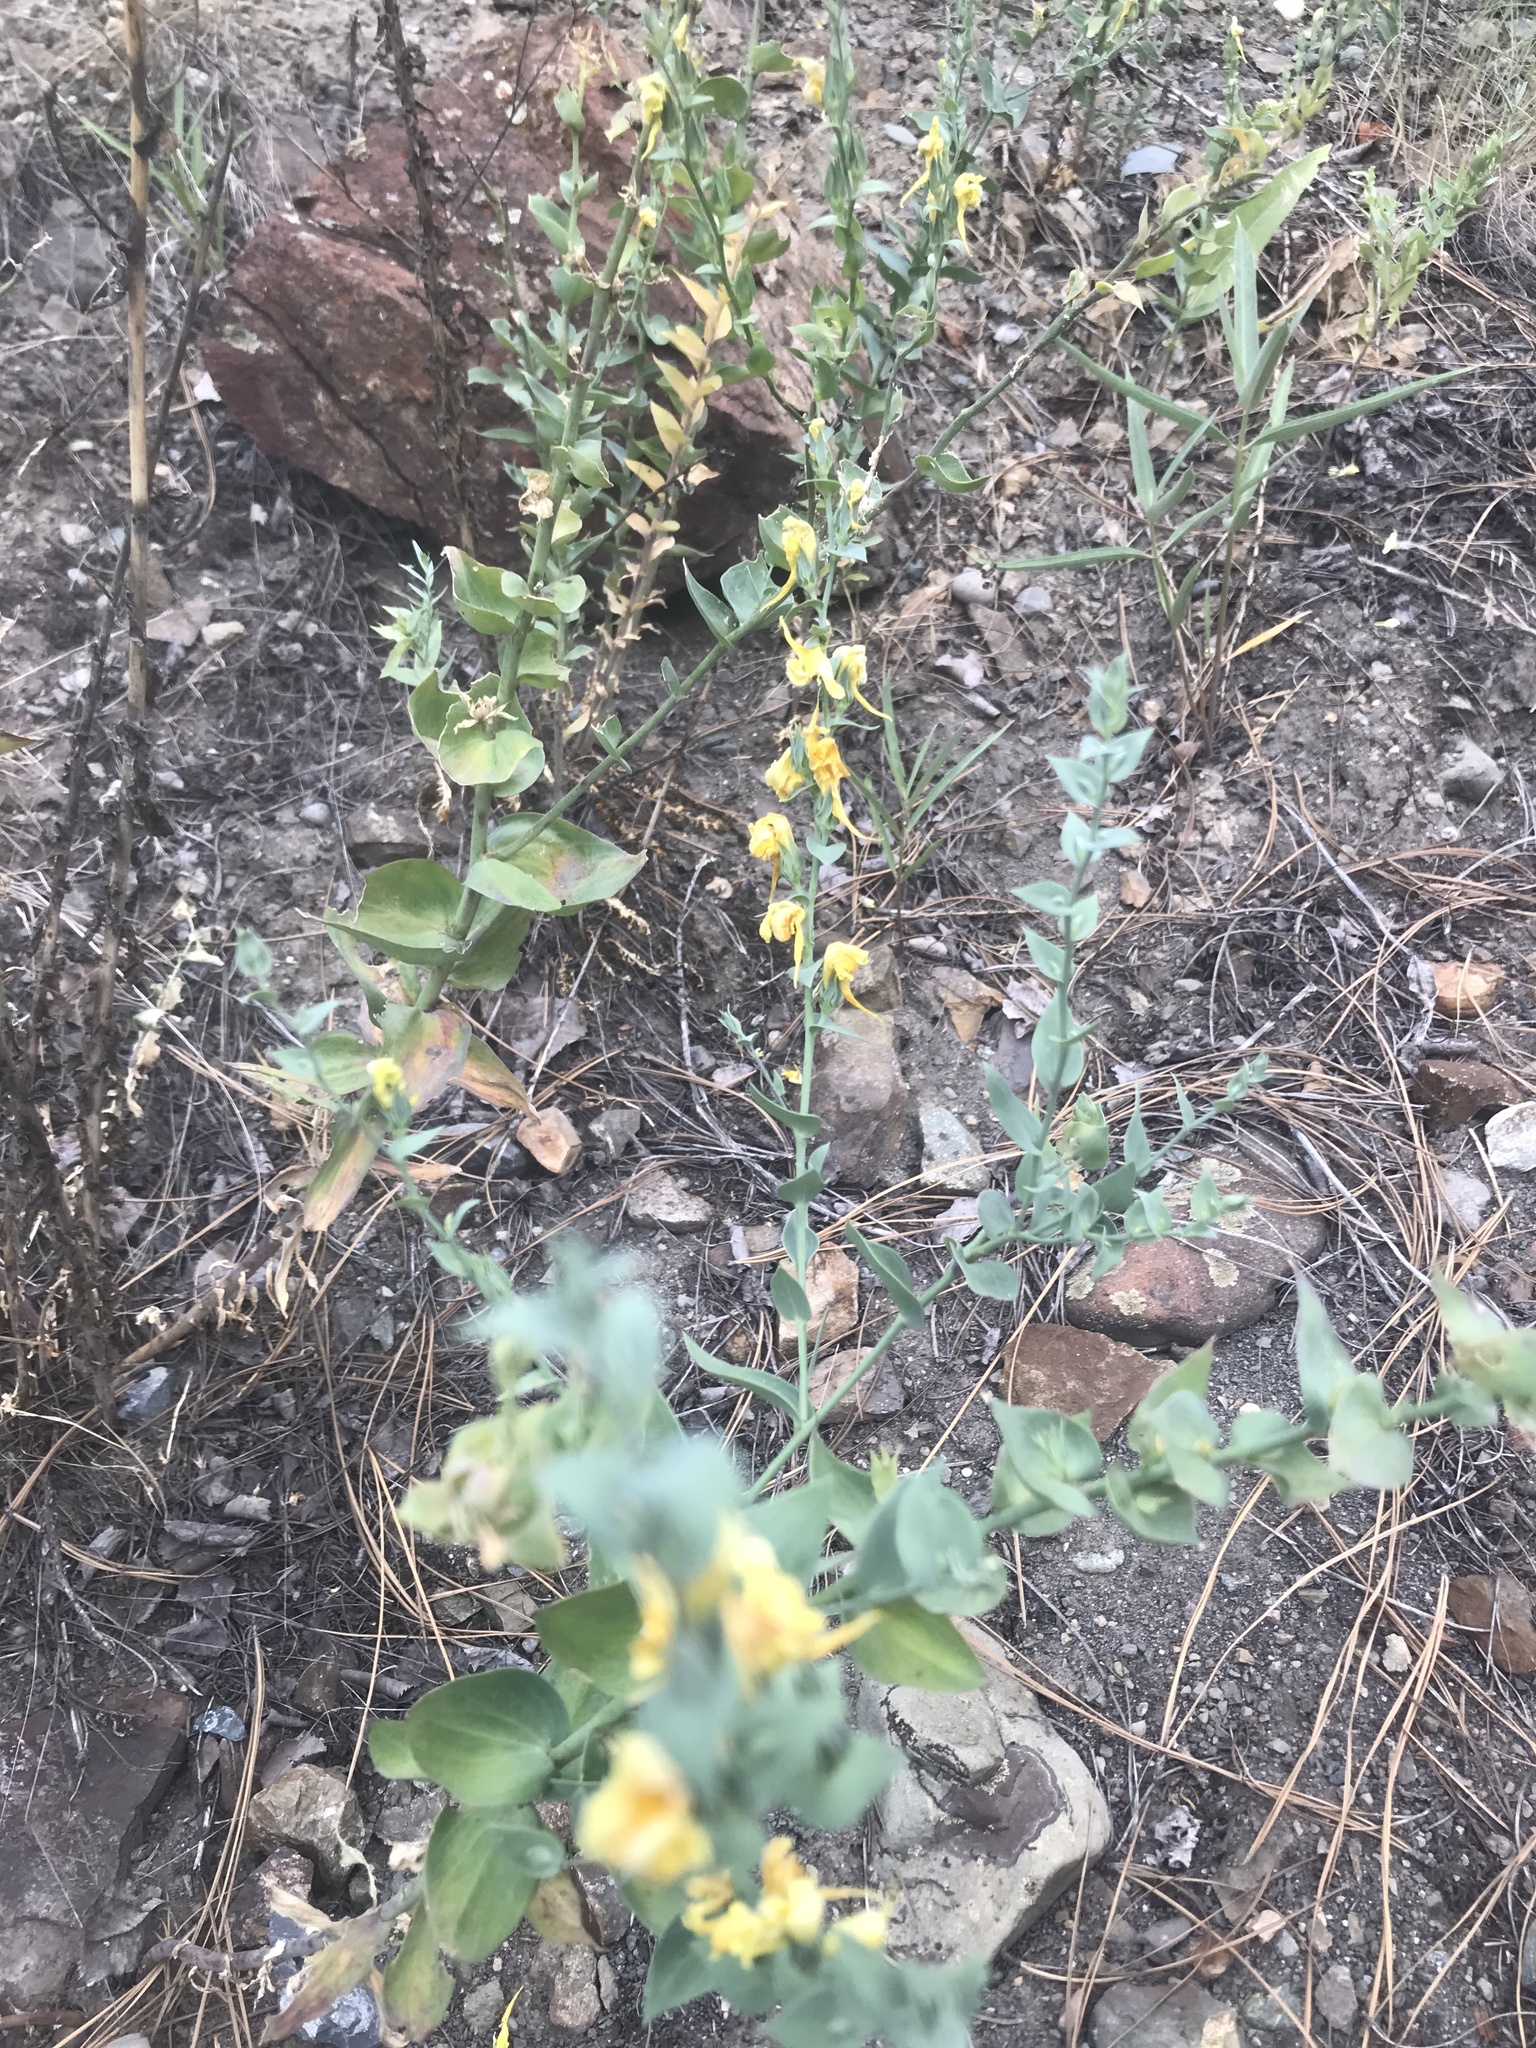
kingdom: Plantae
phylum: Tracheophyta
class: Magnoliopsida
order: Lamiales
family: Plantaginaceae
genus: Linaria
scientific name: Linaria dalmatica
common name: Dalmatian toadflax
